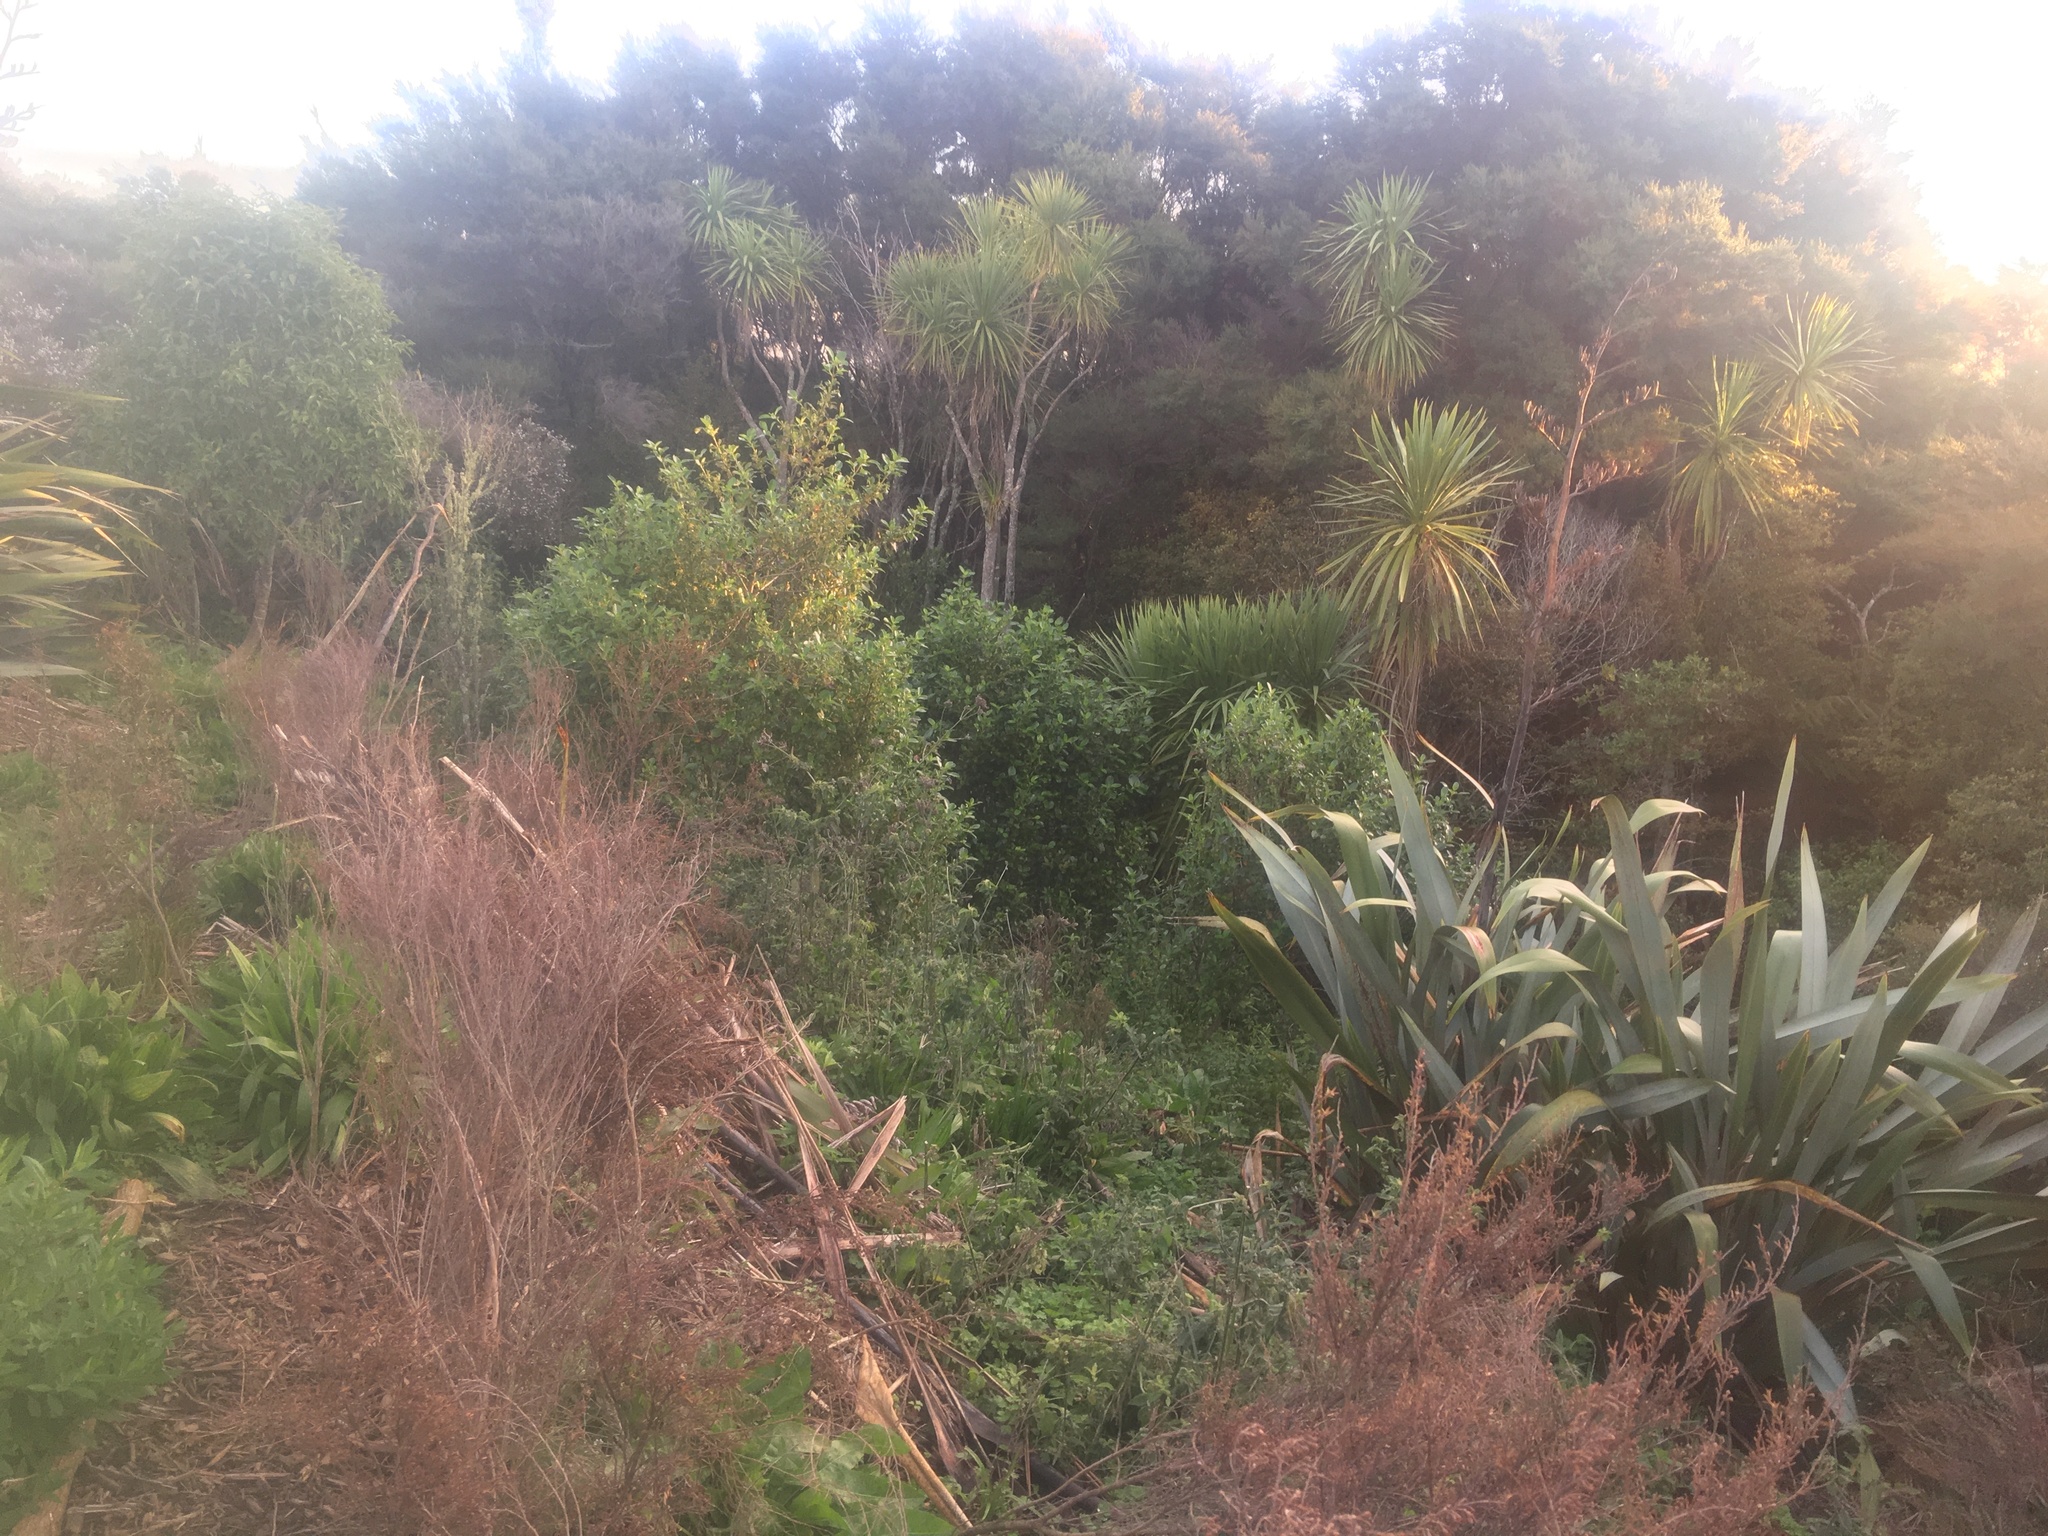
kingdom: Plantae
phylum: Tracheophyta
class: Magnoliopsida
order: Gentianales
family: Rubiaceae
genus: Coprosma
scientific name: Coprosma robusta
